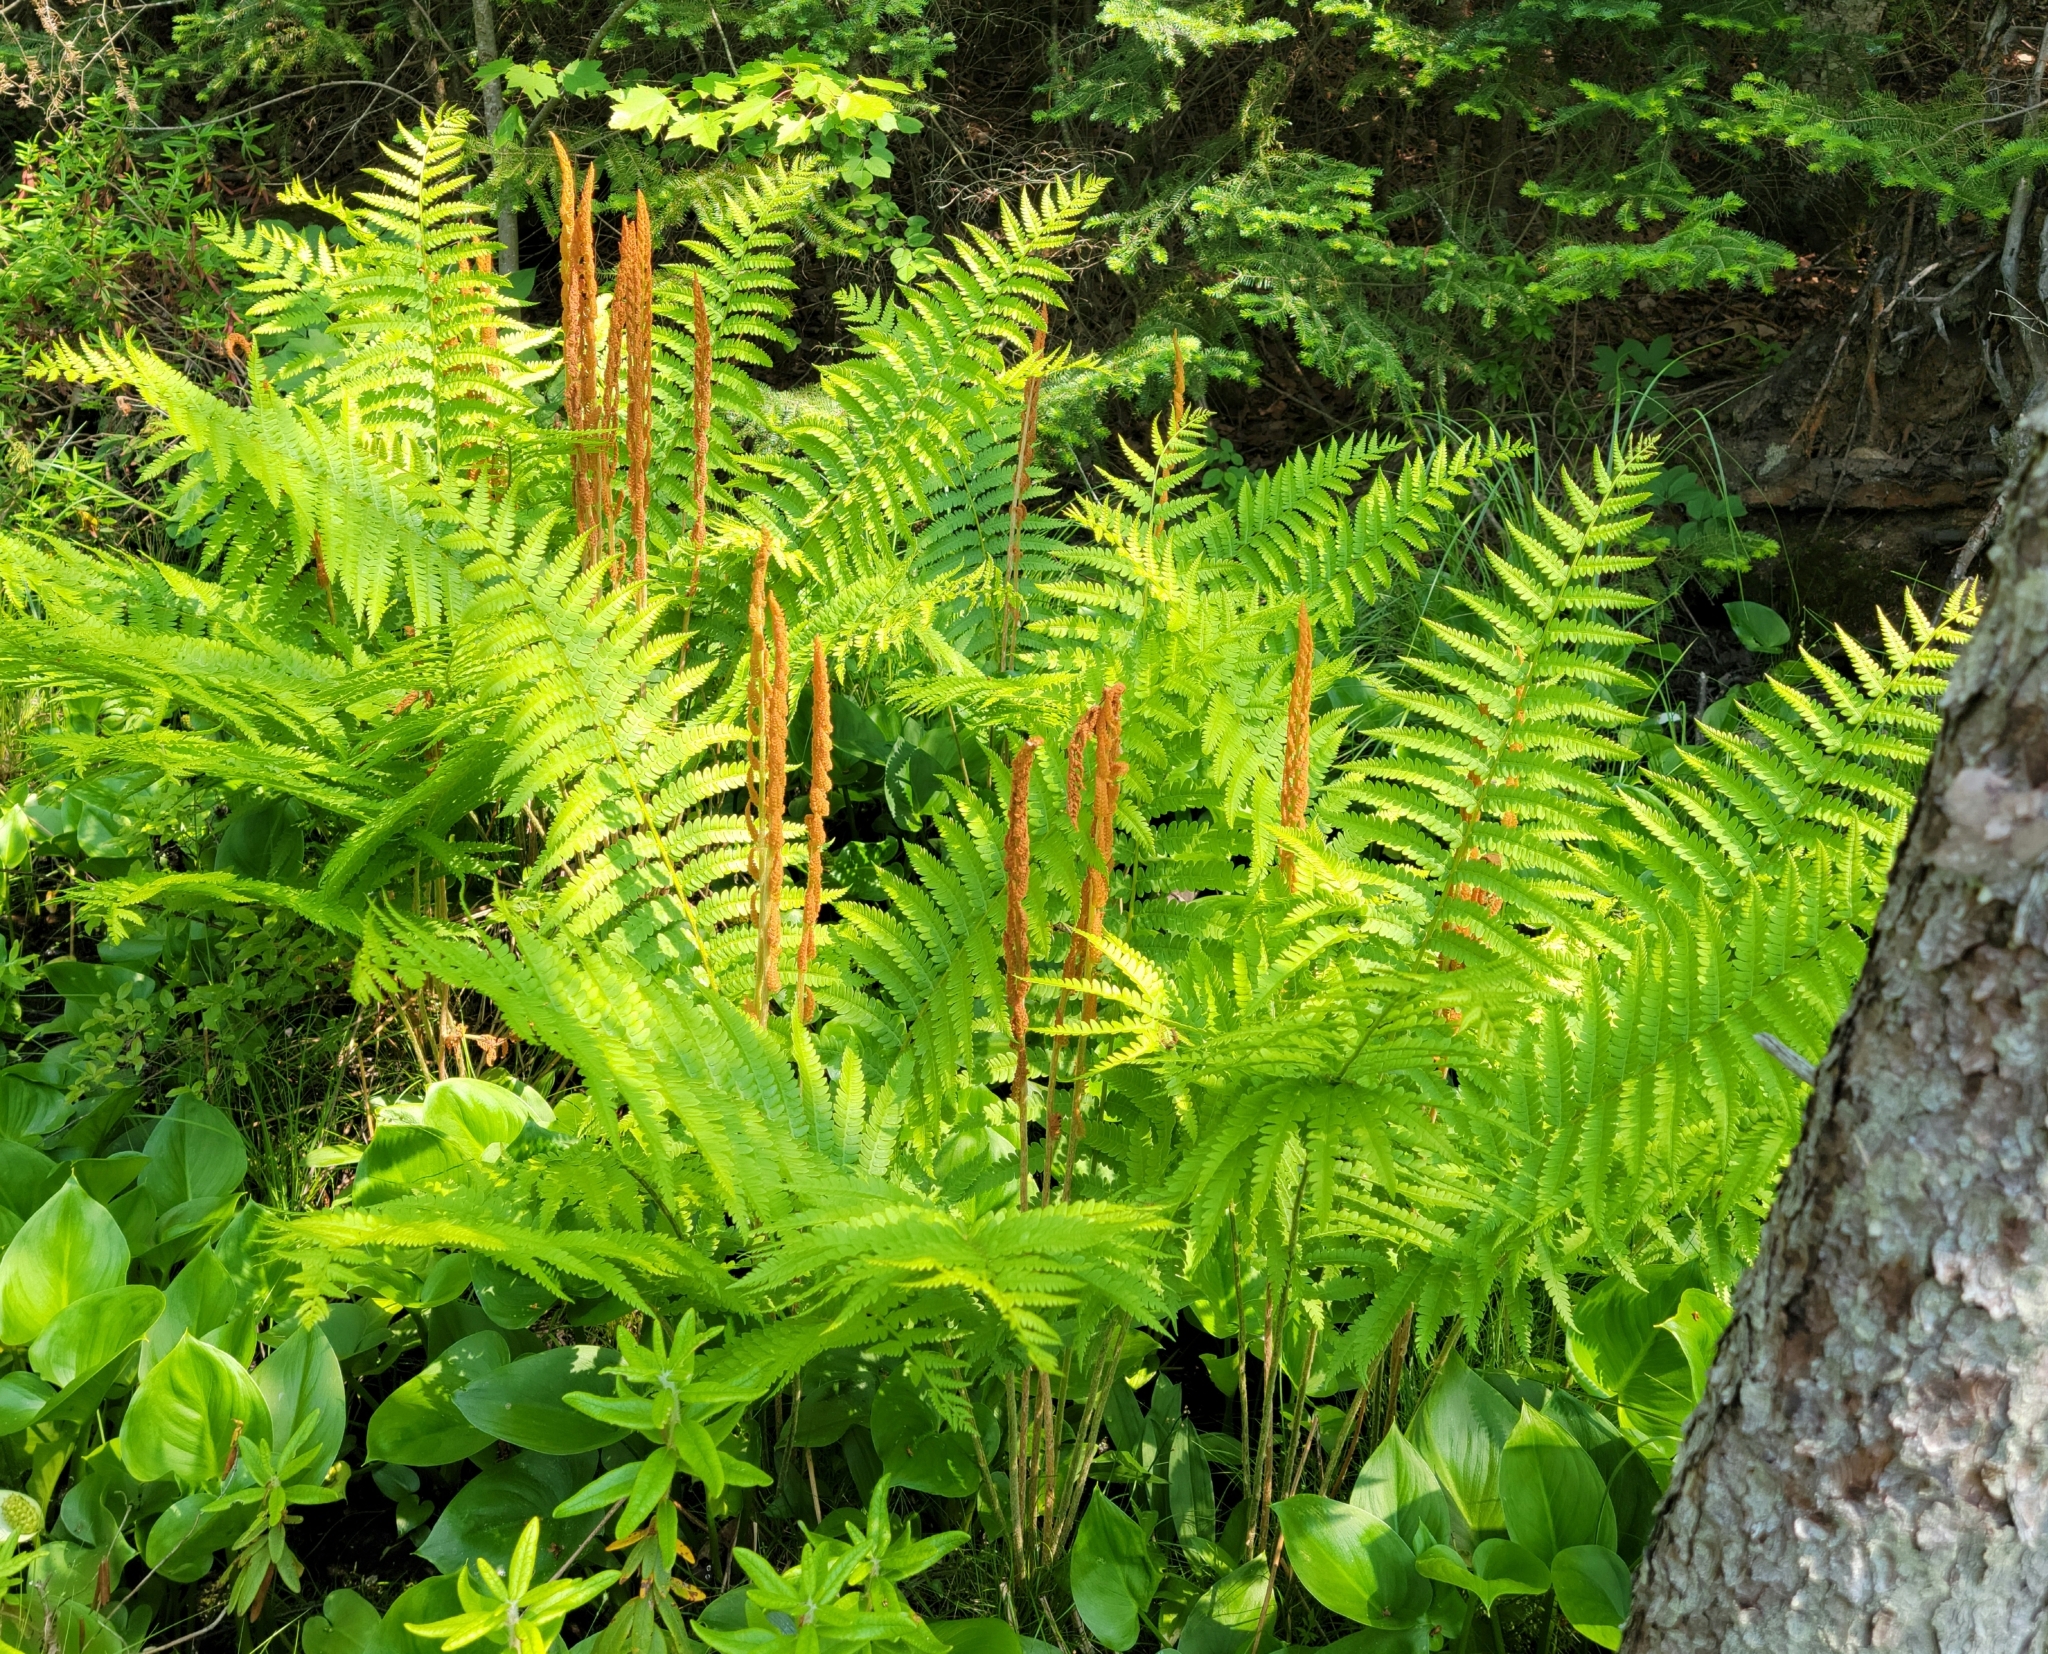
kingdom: Plantae
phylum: Tracheophyta
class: Polypodiopsida
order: Osmundales
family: Osmundaceae
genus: Osmundastrum
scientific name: Osmundastrum cinnamomeum
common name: Cinnamon fern
